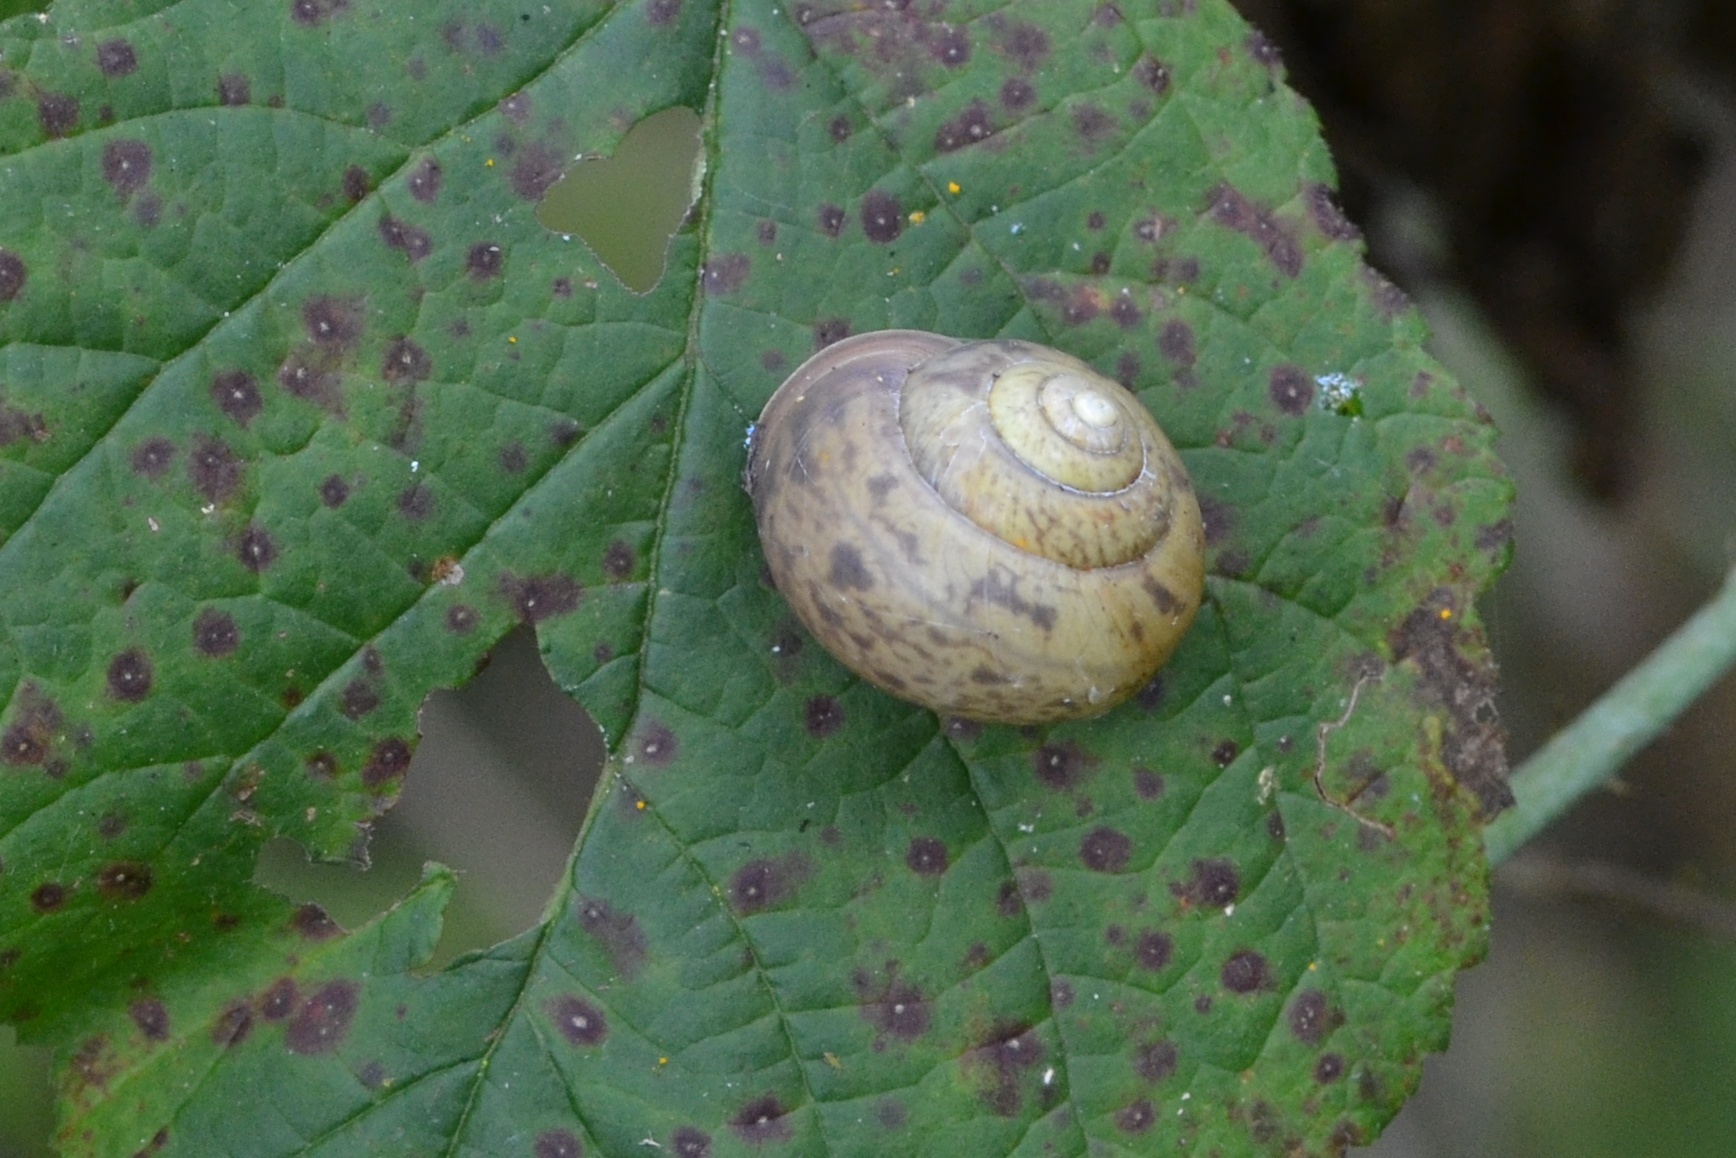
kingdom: Animalia
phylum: Mollusca
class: Gastropoda
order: Stylommatophora
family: Camaenidae
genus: Fruticicola
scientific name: Fruticicola fruticum
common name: Bush snail
